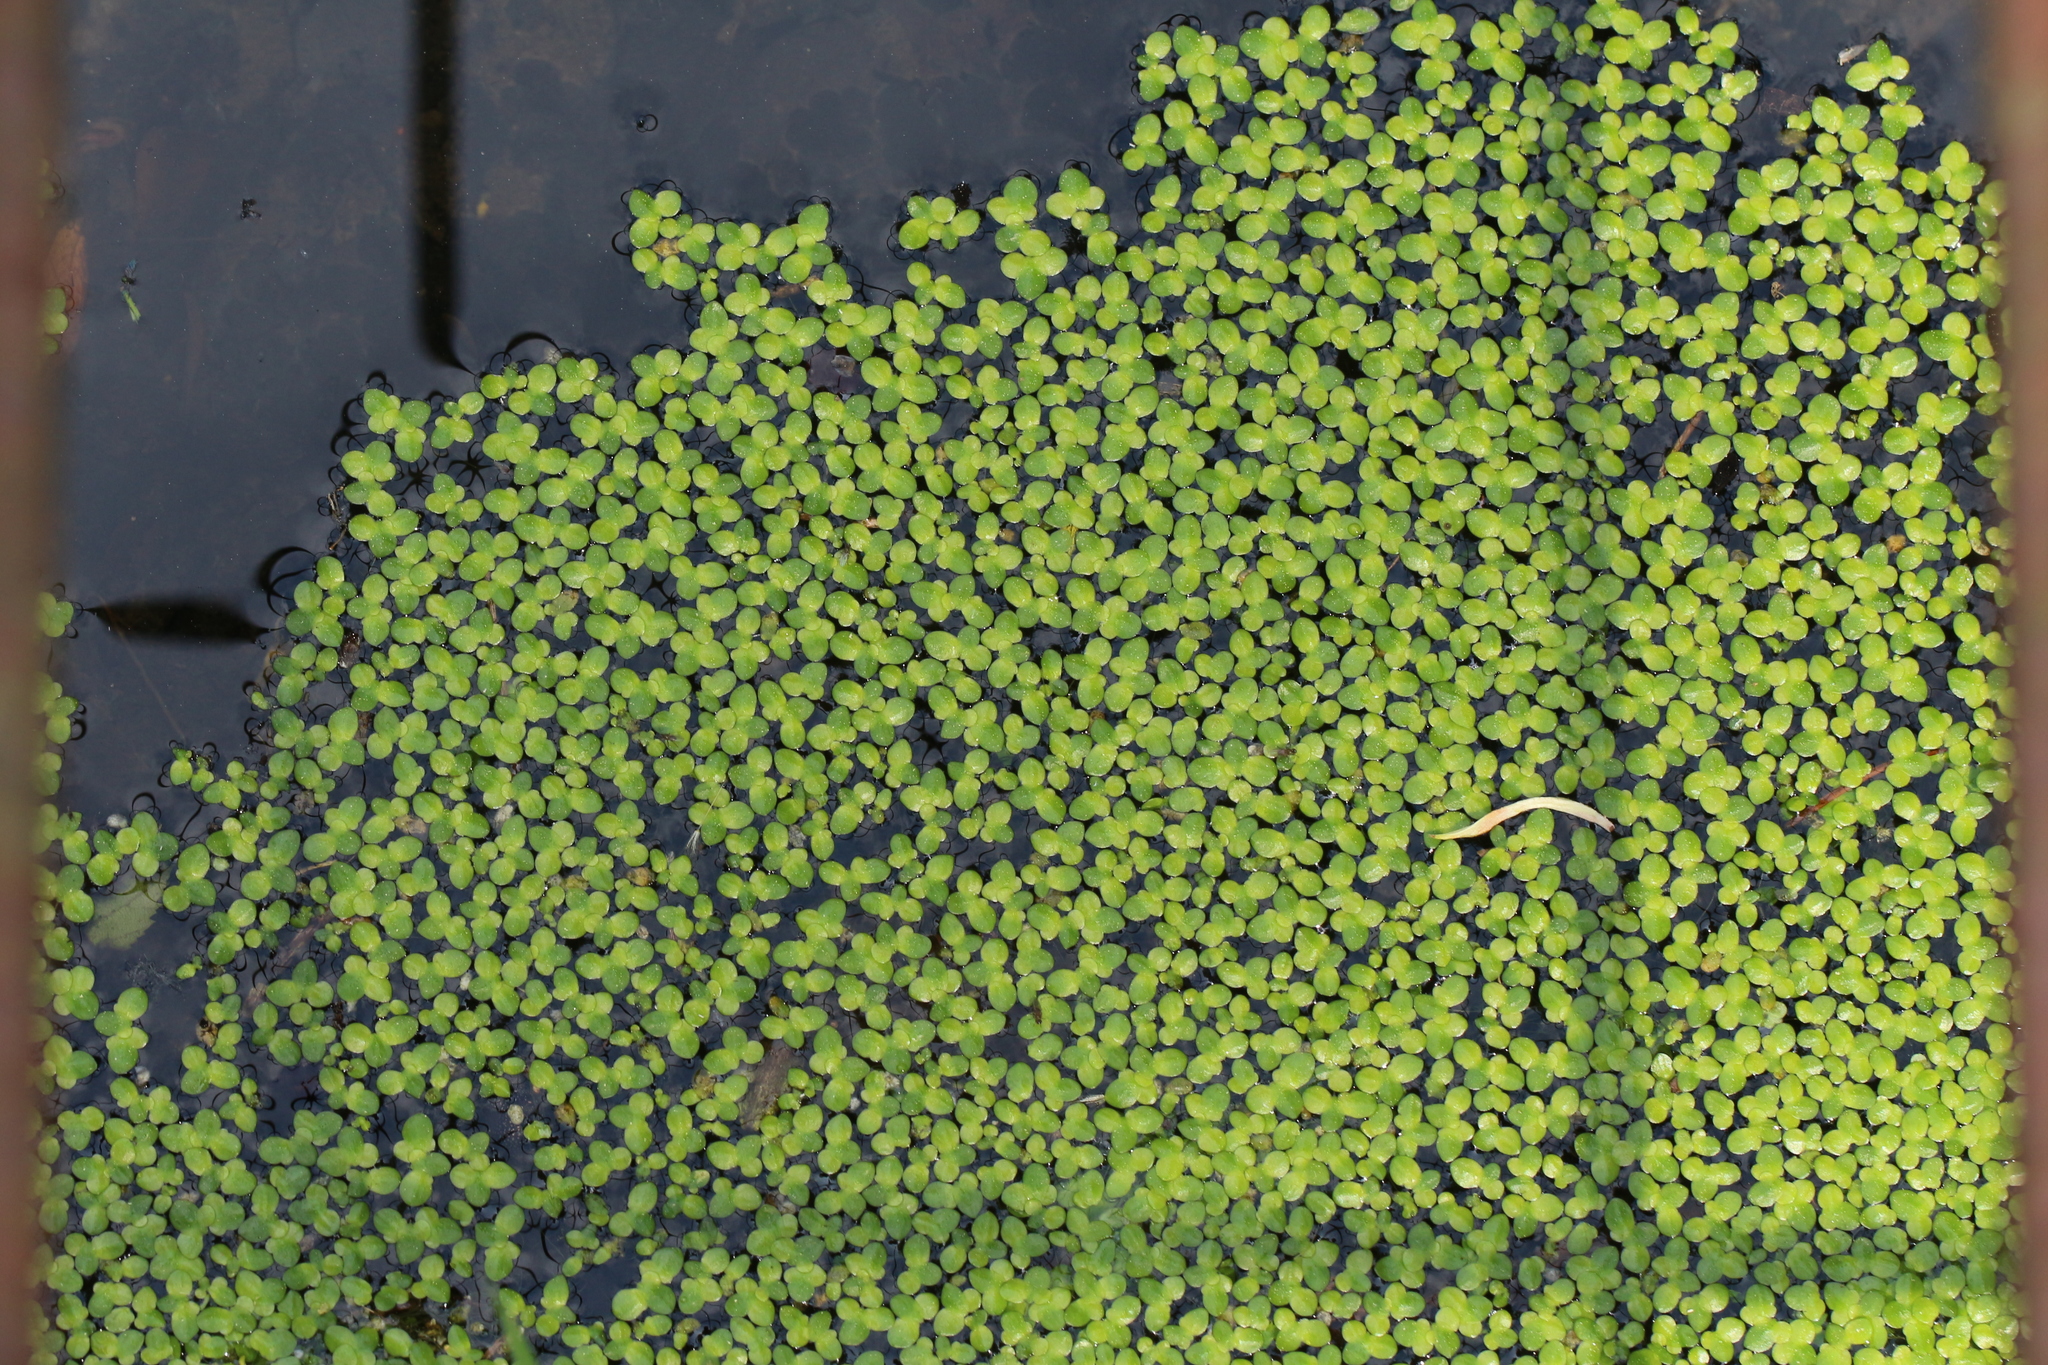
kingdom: Plantae
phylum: Tracheophyta
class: Liliopsida
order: Alismatales
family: Araceae
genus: Lemna
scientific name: Lemna minor
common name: Common duckweed
